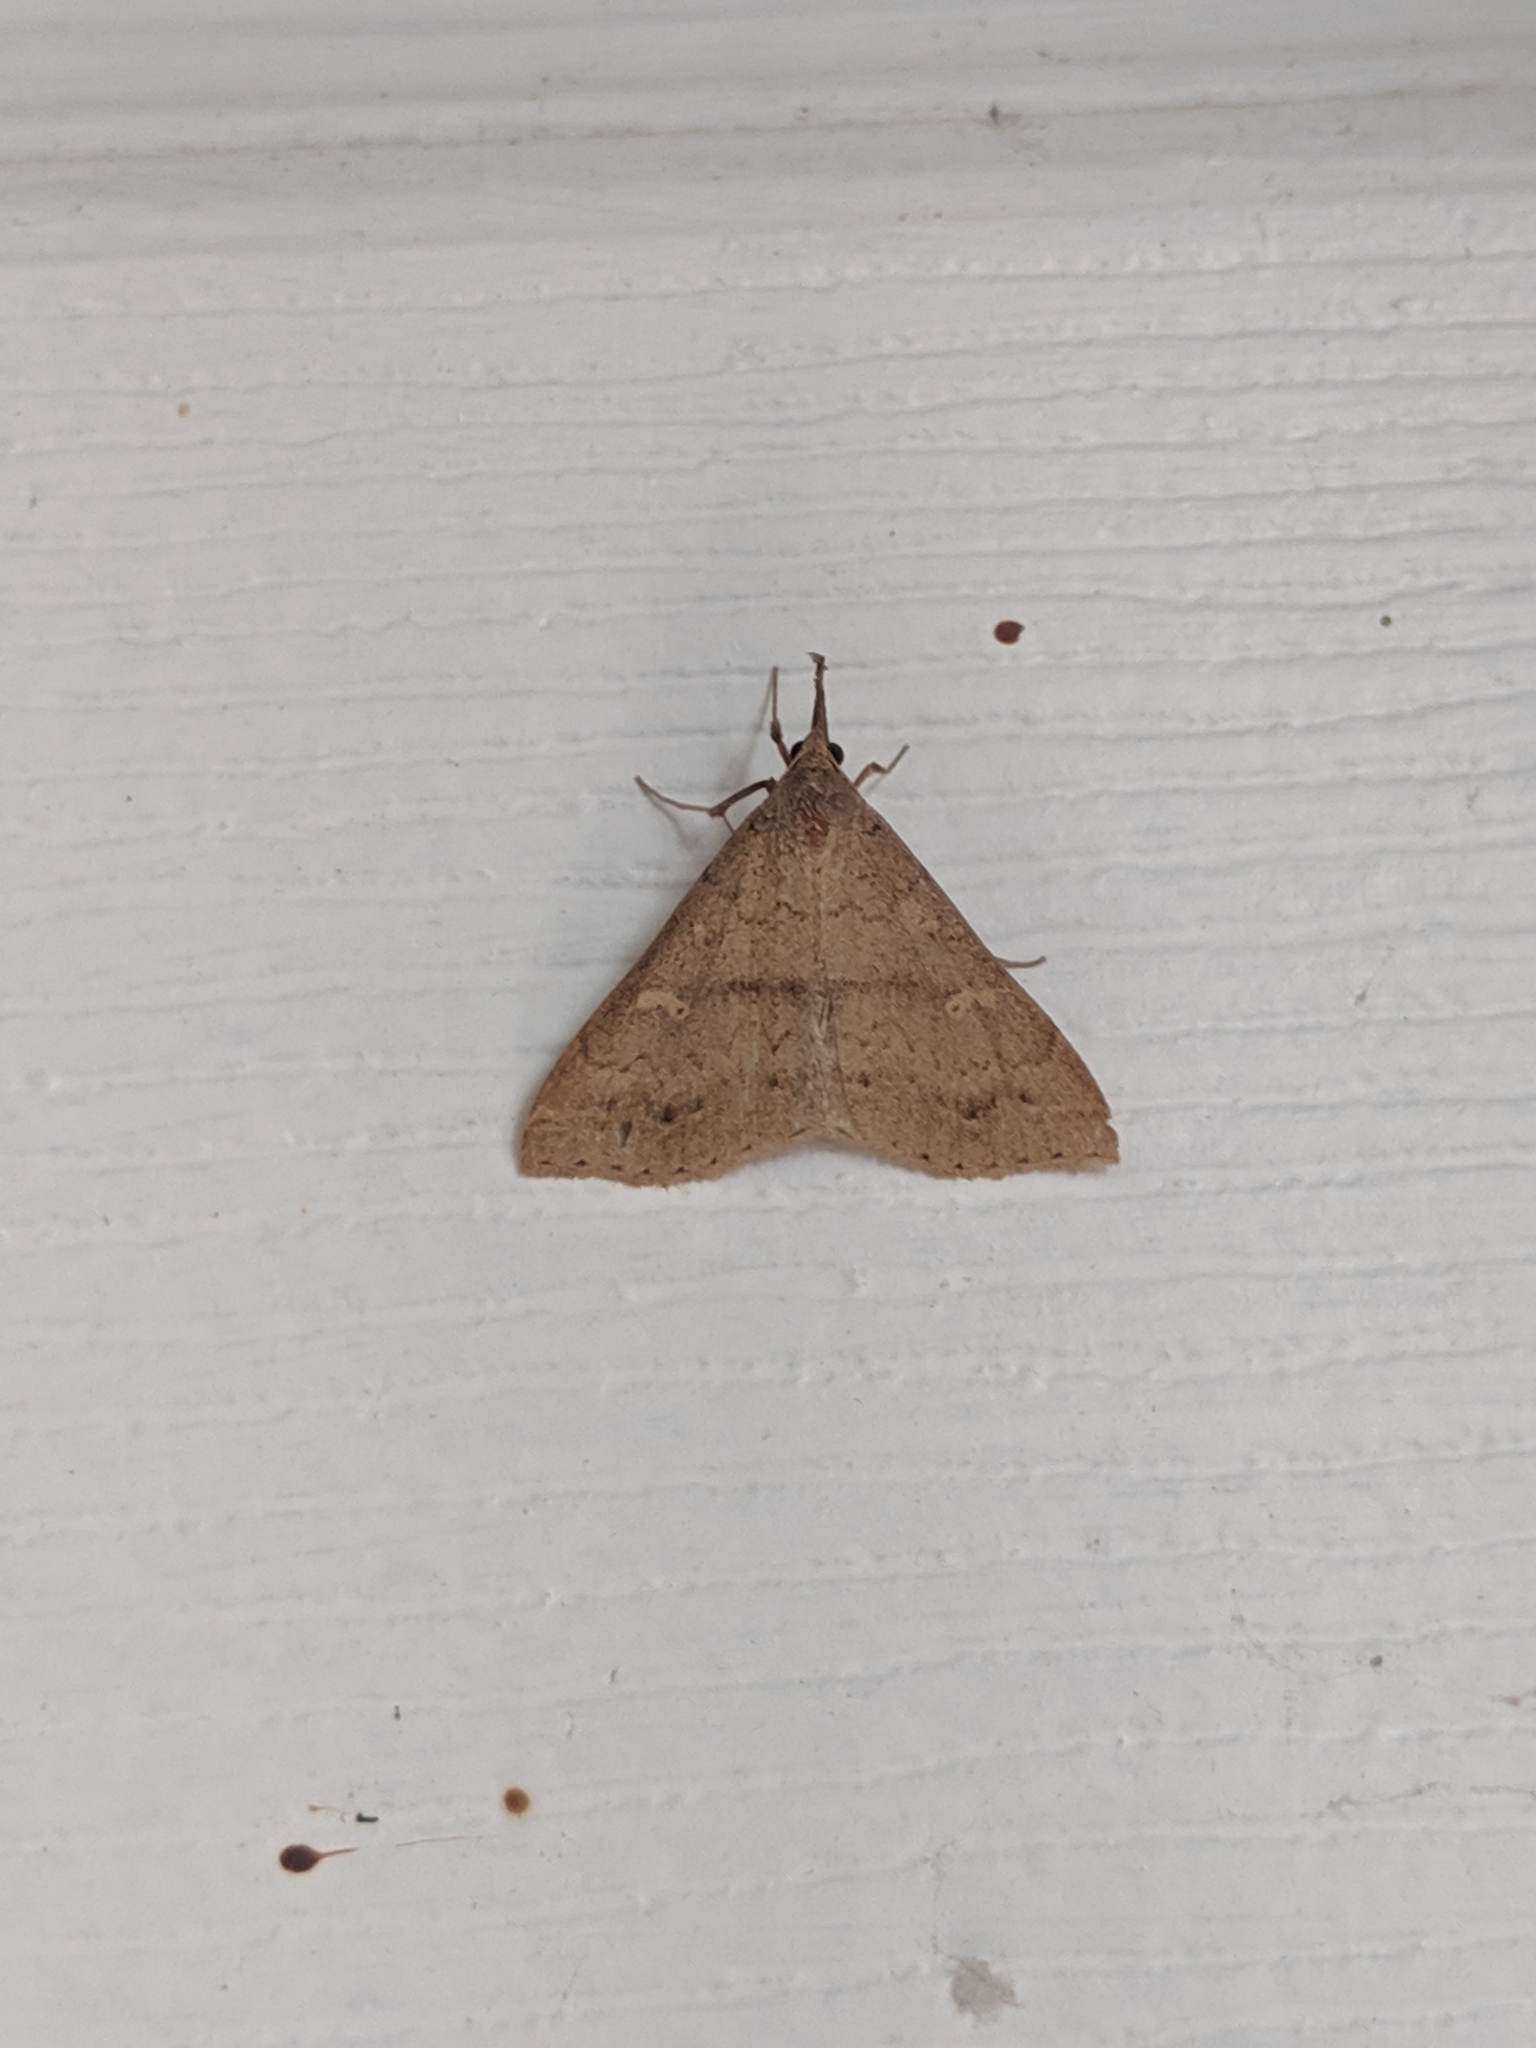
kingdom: Animalia
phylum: Arthropoda
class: Insecta
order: Lepidoptera
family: Erebidae
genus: Renia
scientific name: Renia adspergillus
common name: Speckled renia moth
